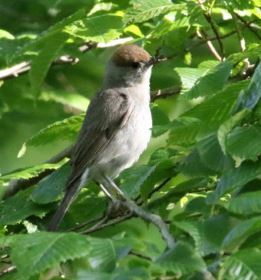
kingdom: Animalia
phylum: Chordata
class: Aves
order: Passeriformes
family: Sylviidae
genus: Sylvia
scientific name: Sylvia atricapilla
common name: Eurasian blackcap
